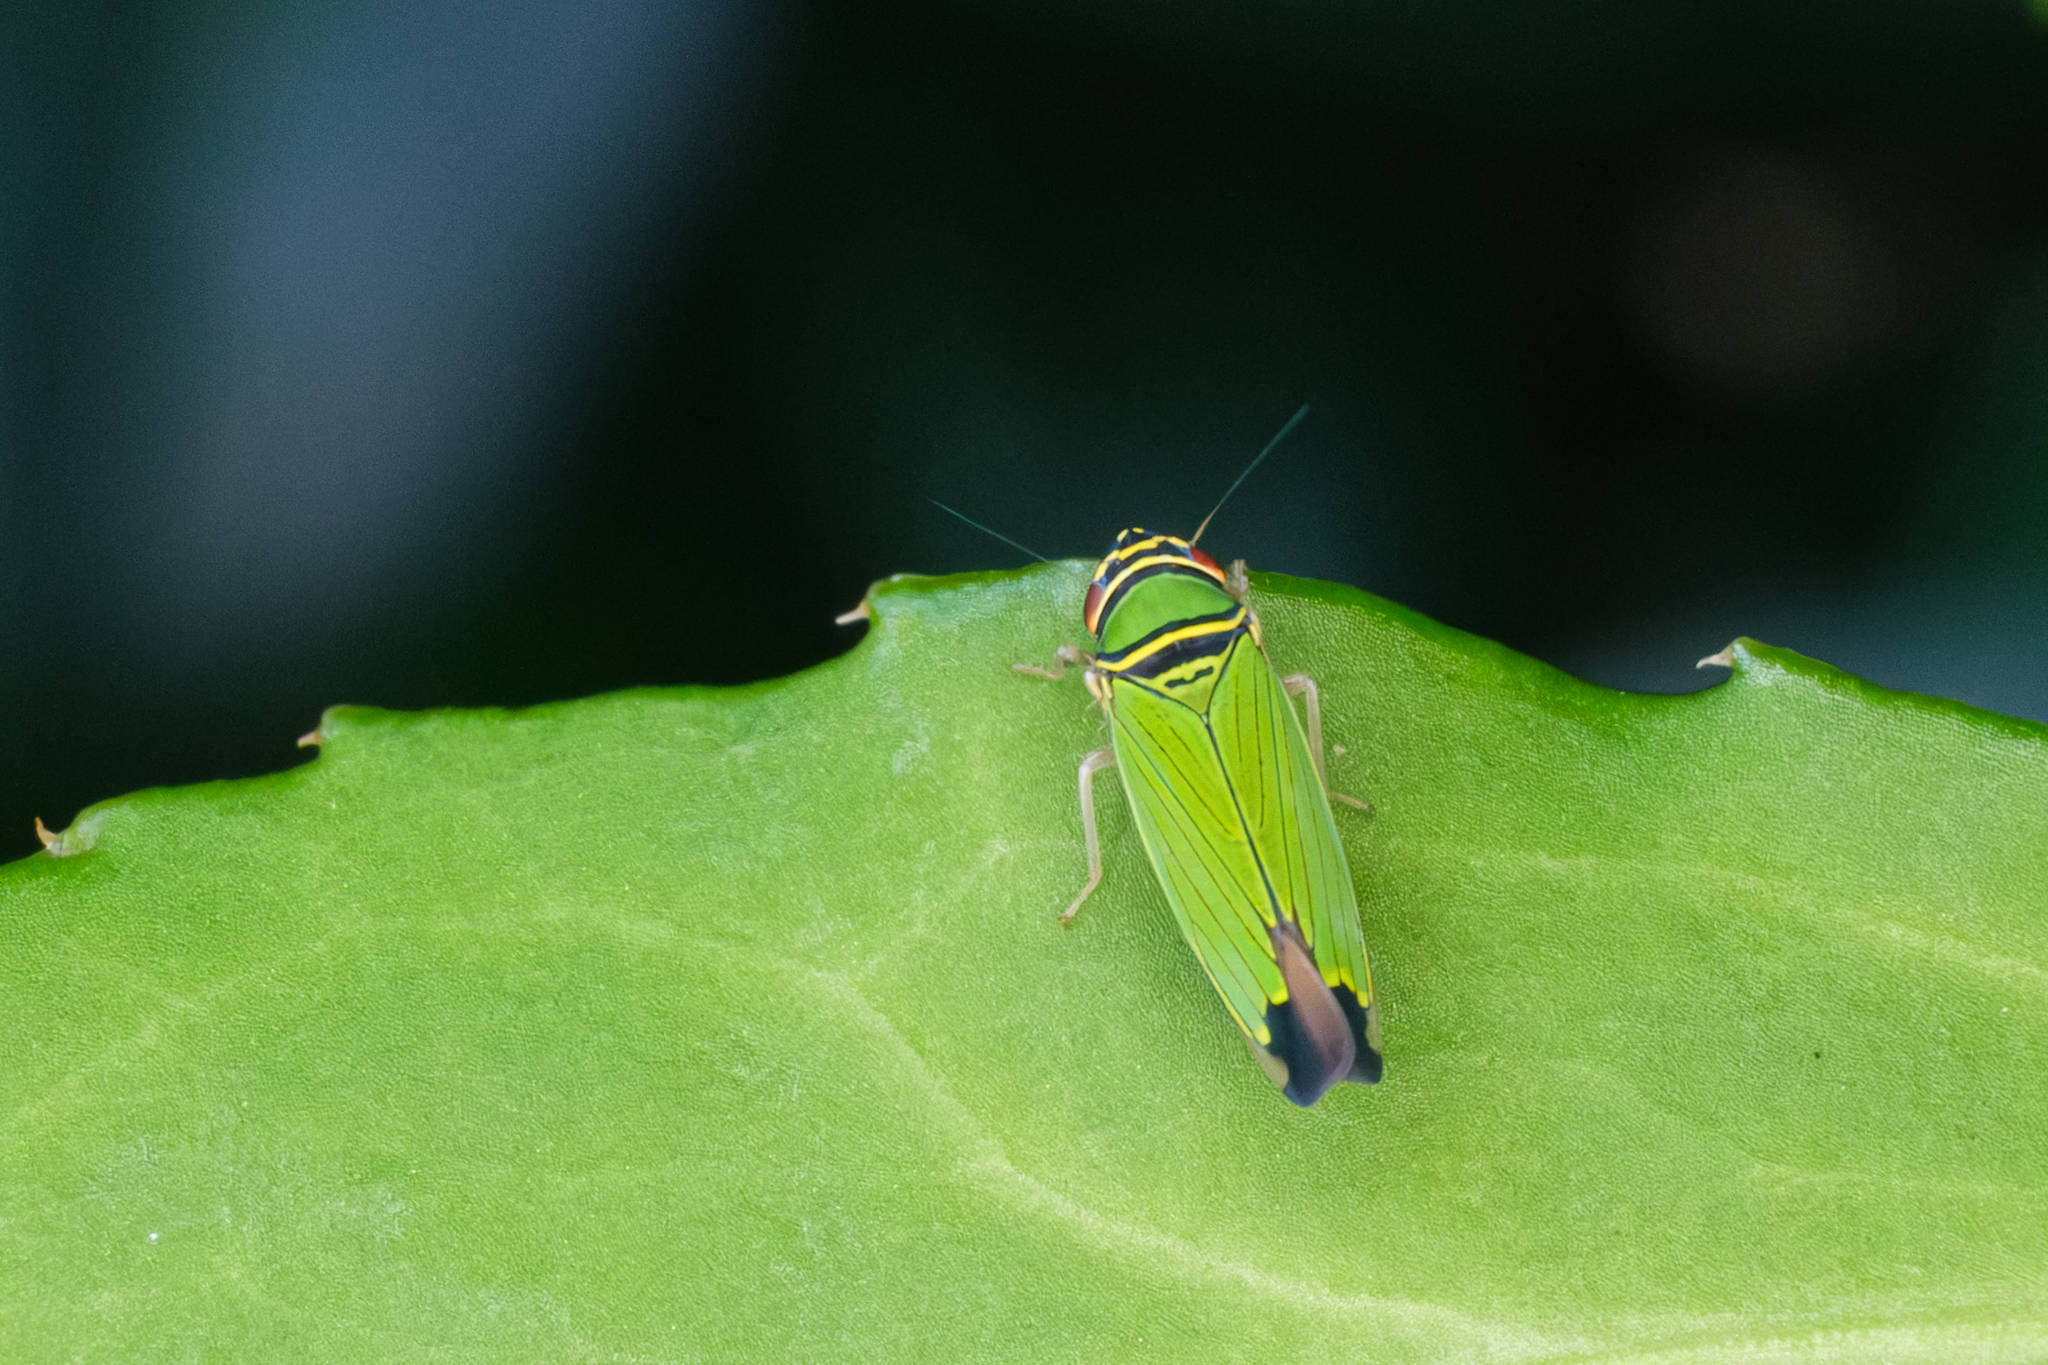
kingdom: Animalia
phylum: Arthropoda
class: Insecta
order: Hemiptera
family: Cicadellidae
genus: Tylozygus
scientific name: Tylozygus geometricus
